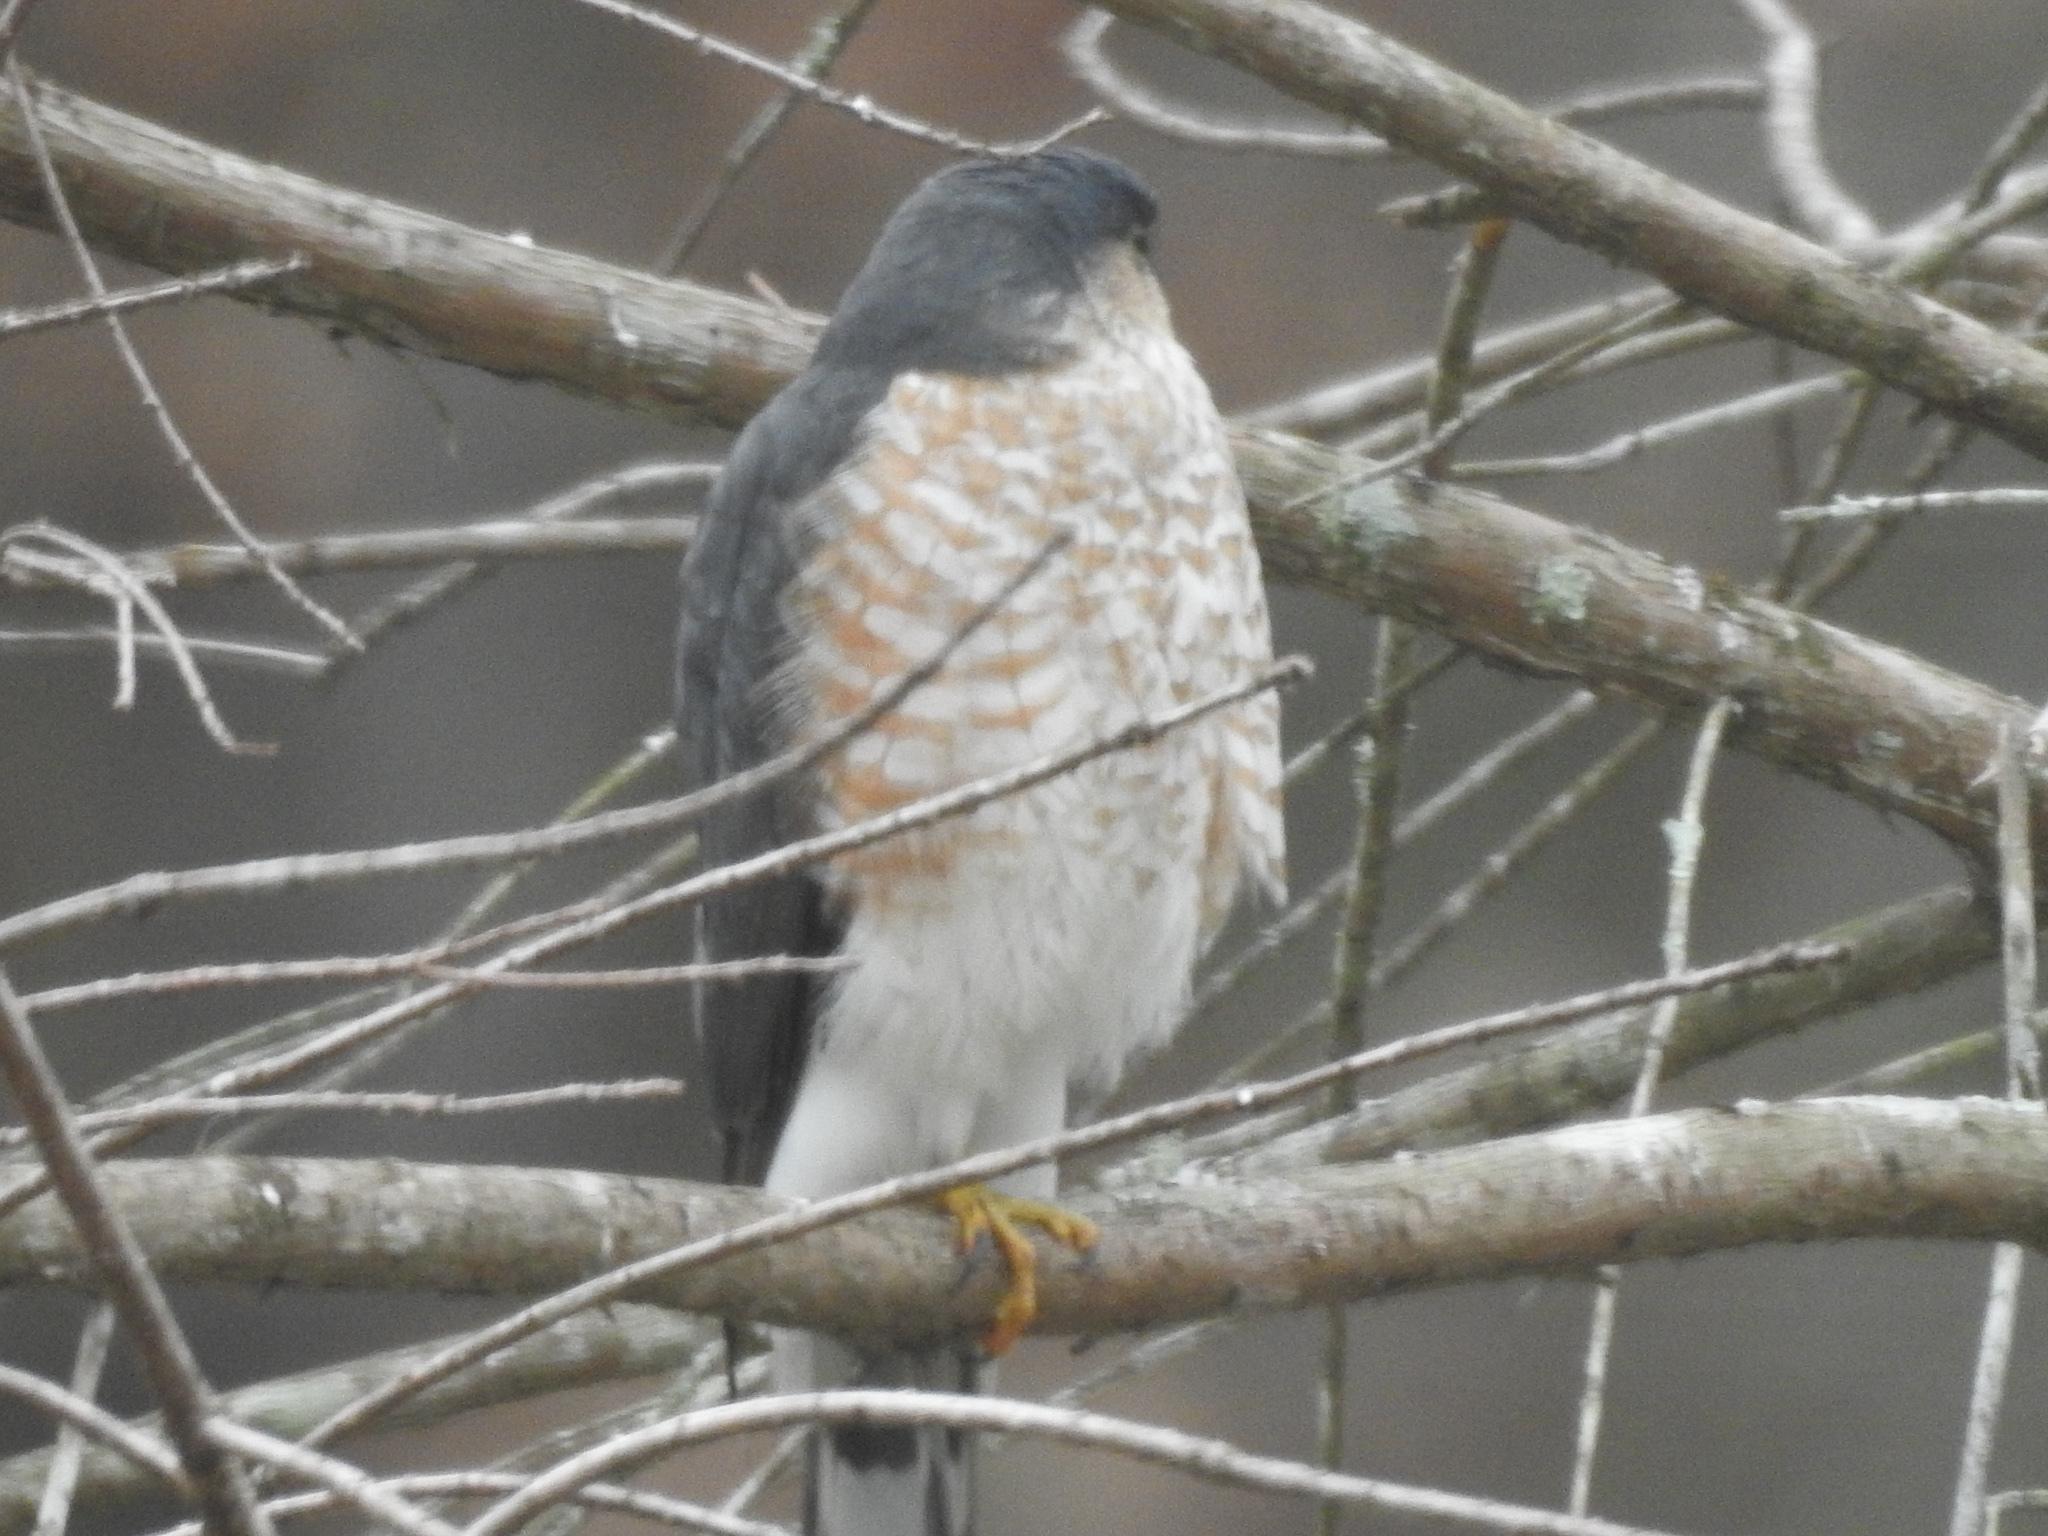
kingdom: Animalia
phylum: Chordata
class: Aves
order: Accipitriformes
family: Accipitridae
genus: Accipiter
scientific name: Accipiter striatus
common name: Sharp-shinned hawk
